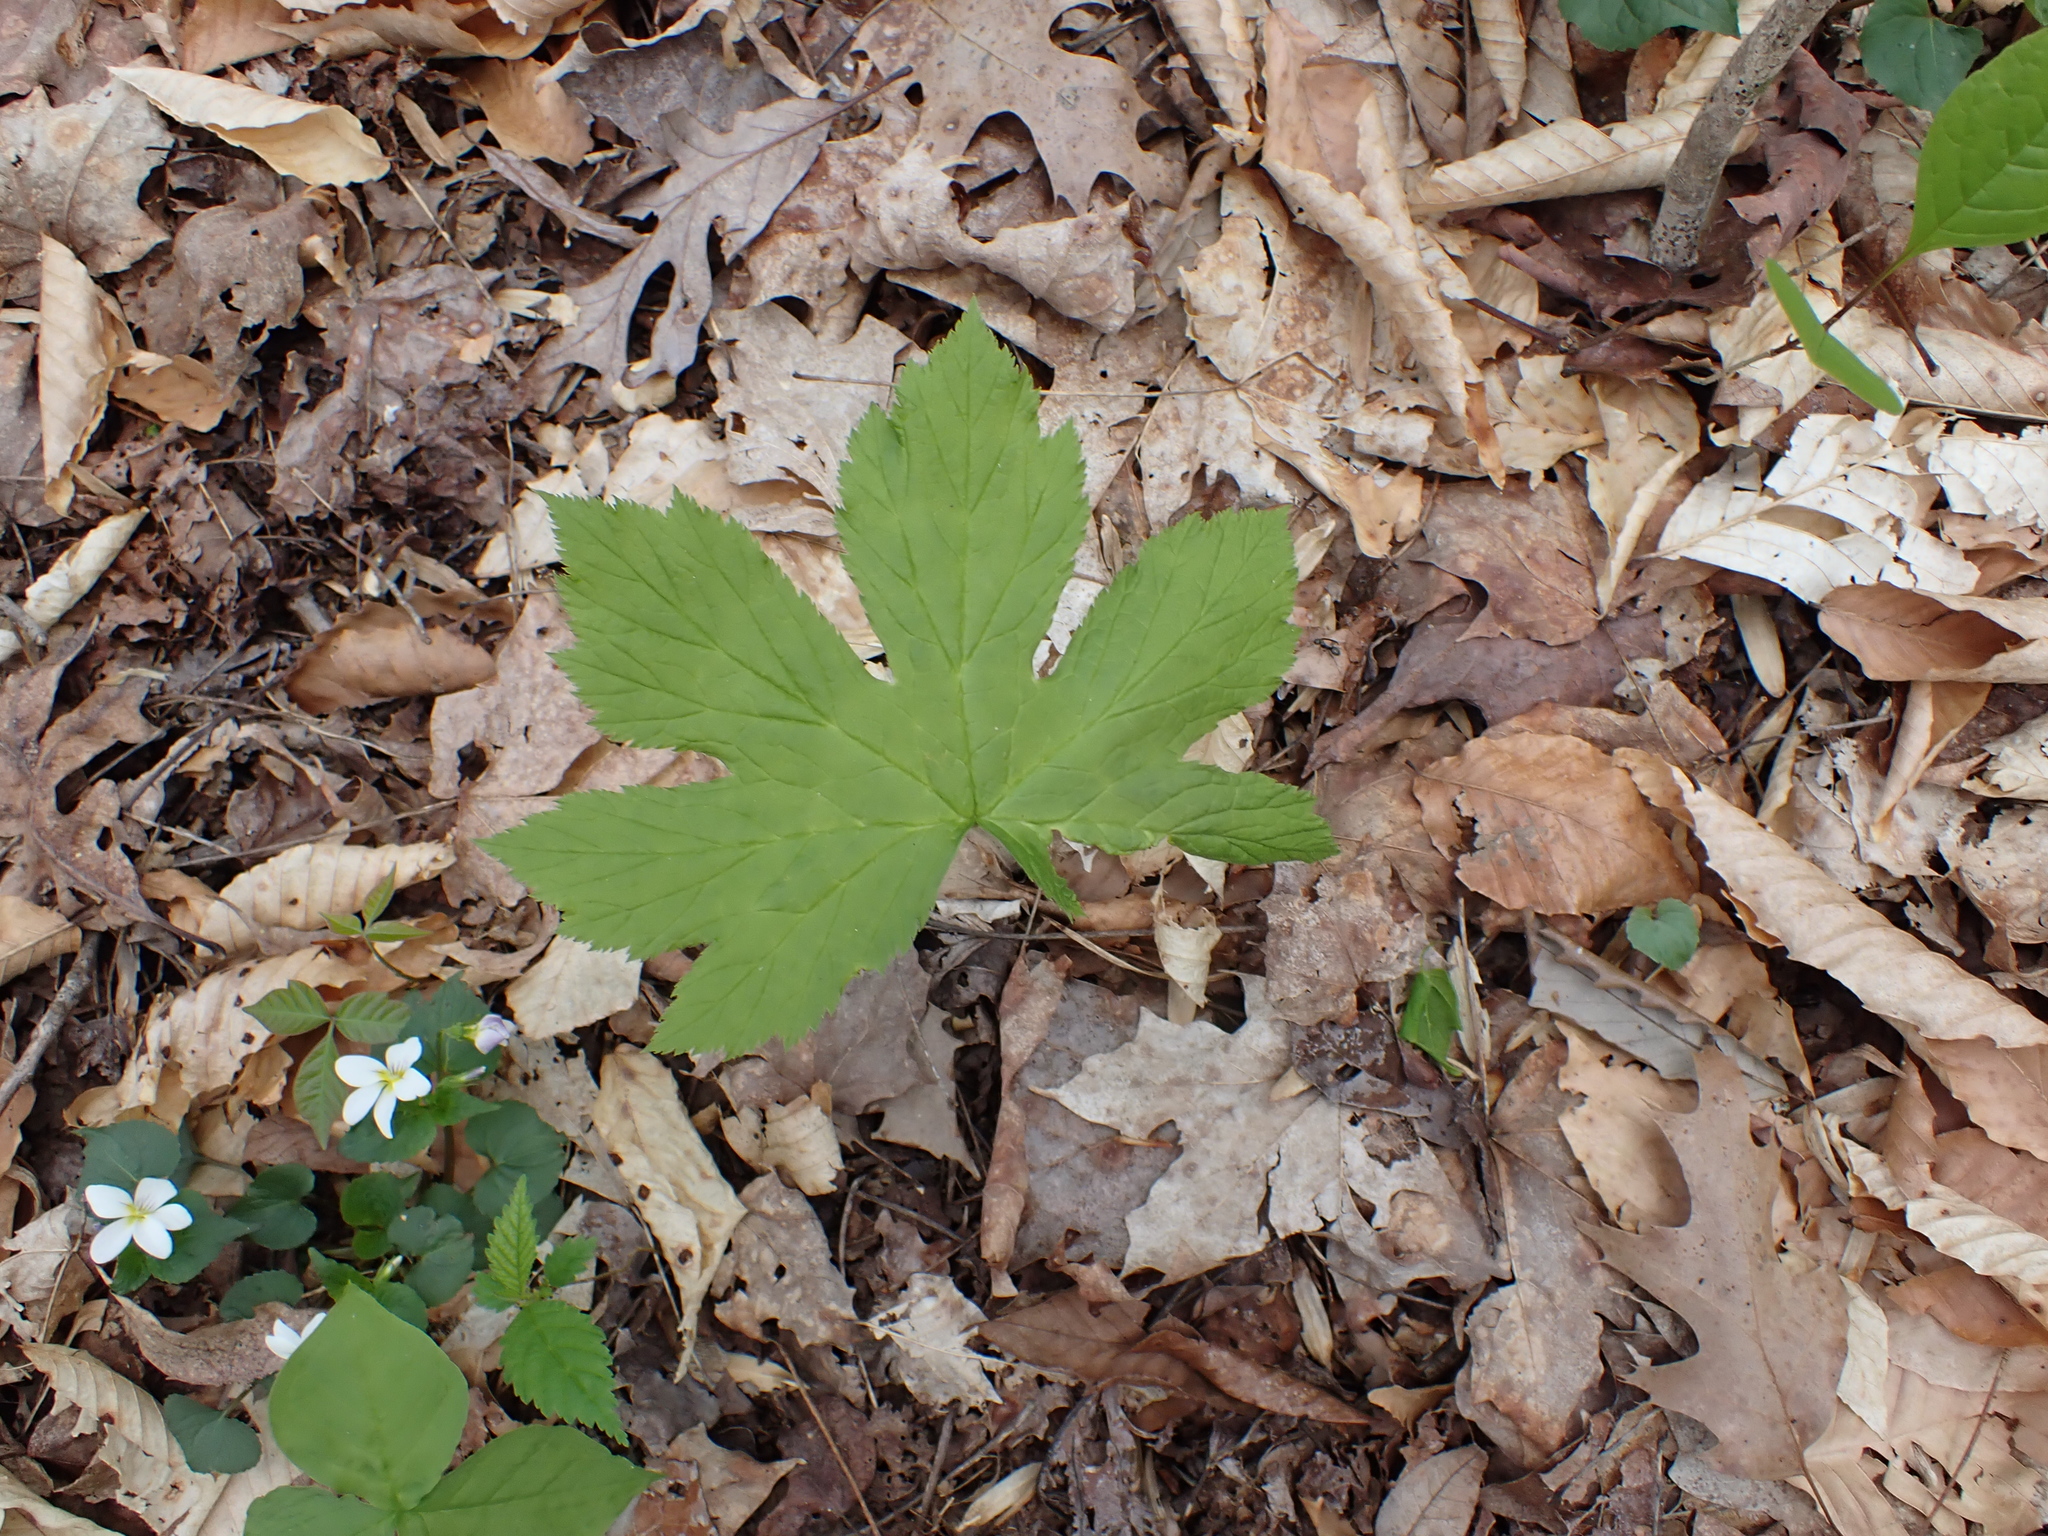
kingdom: Plantae
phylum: Tracheophyta
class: Magnoliopsida
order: Ranunculales
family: Ranunculaceae
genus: Hydrastis
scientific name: Hydrastis canadensis
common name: Goldenseal
